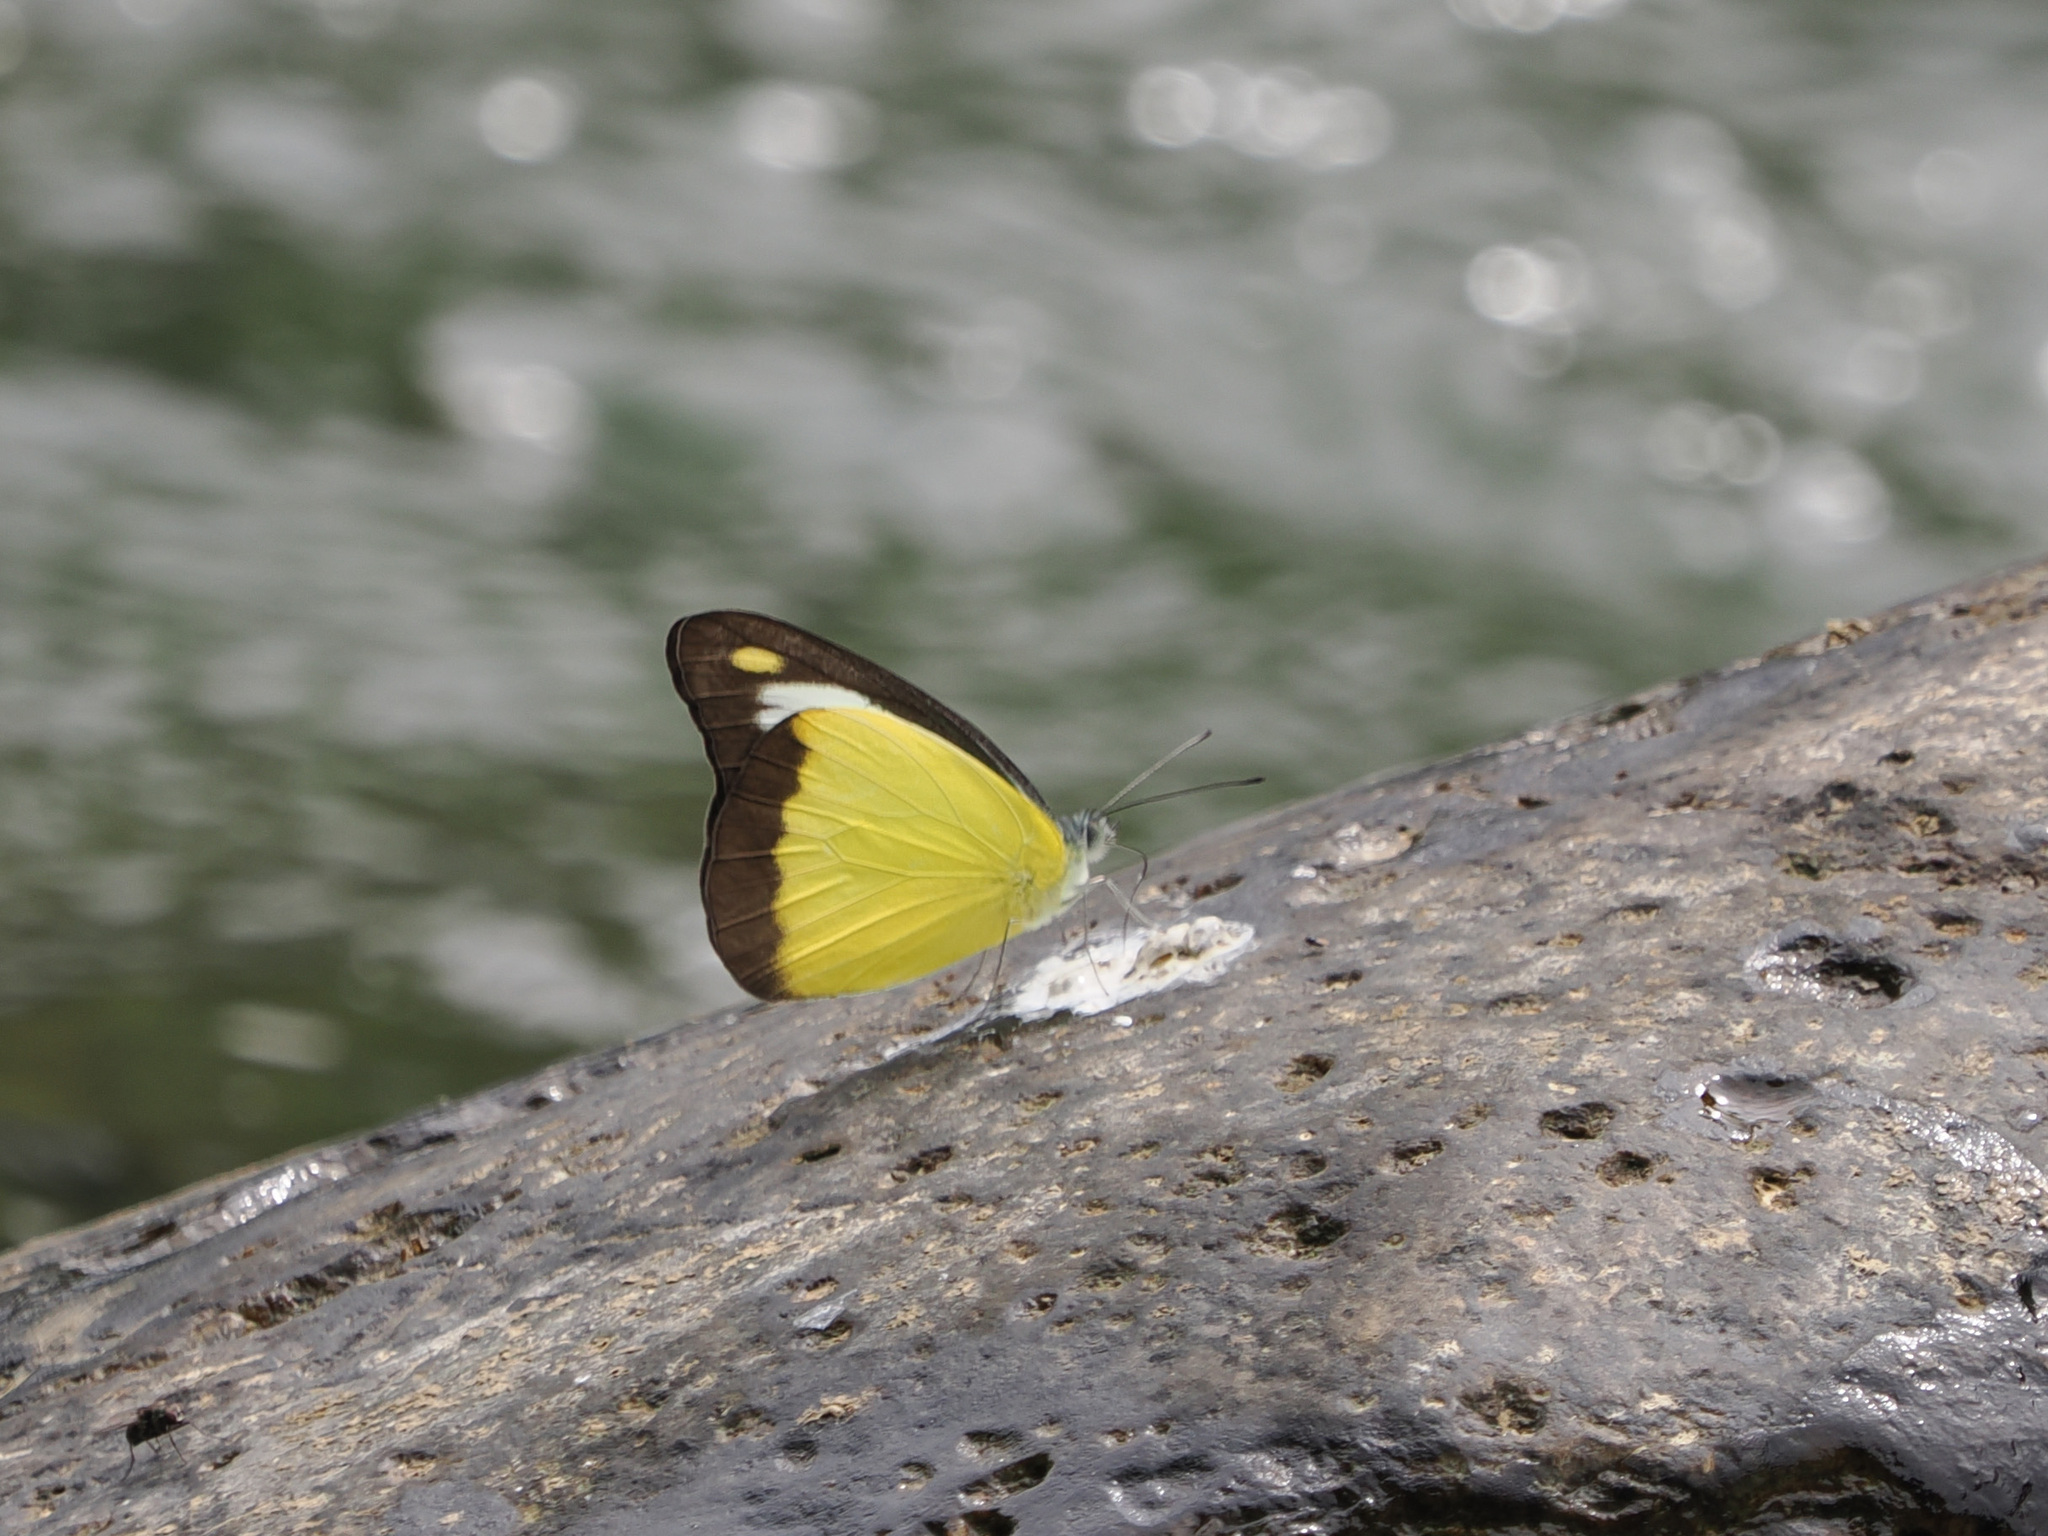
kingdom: Animalia
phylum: Arthropoda
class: Insecta
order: Lepidoptera
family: Pieridae
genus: Appias
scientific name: Appias lyncida
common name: Chocolate albatross
